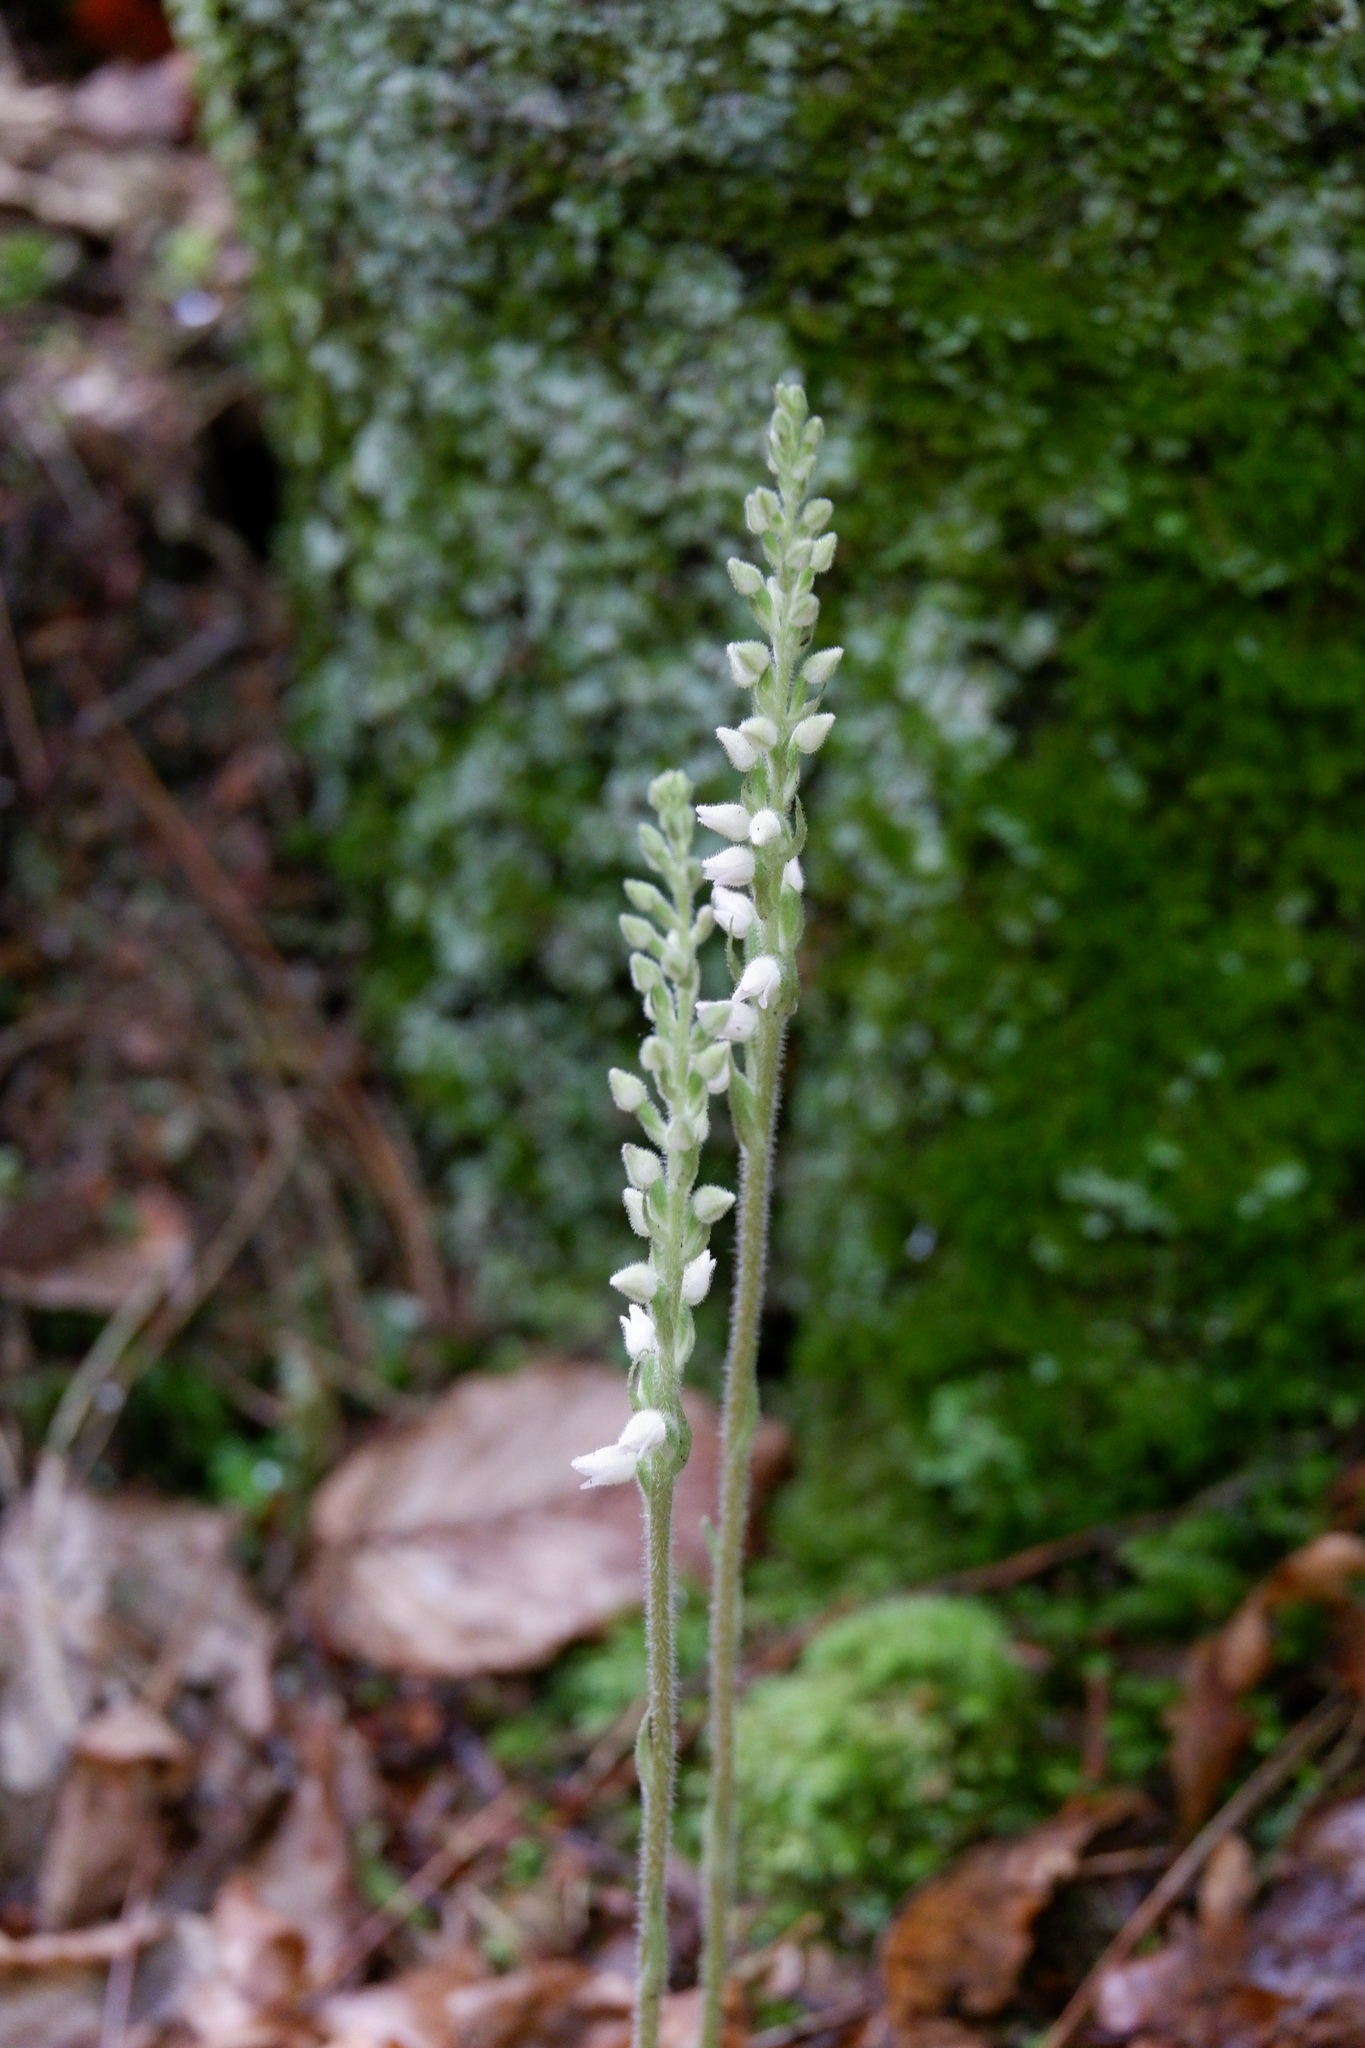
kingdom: Plantae
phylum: Tracheophyta
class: Liliopsida
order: Asparagales
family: Orchidaceae
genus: Goodyera
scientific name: Goodyera tesselata
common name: Checkered rattlesnake-plantain
